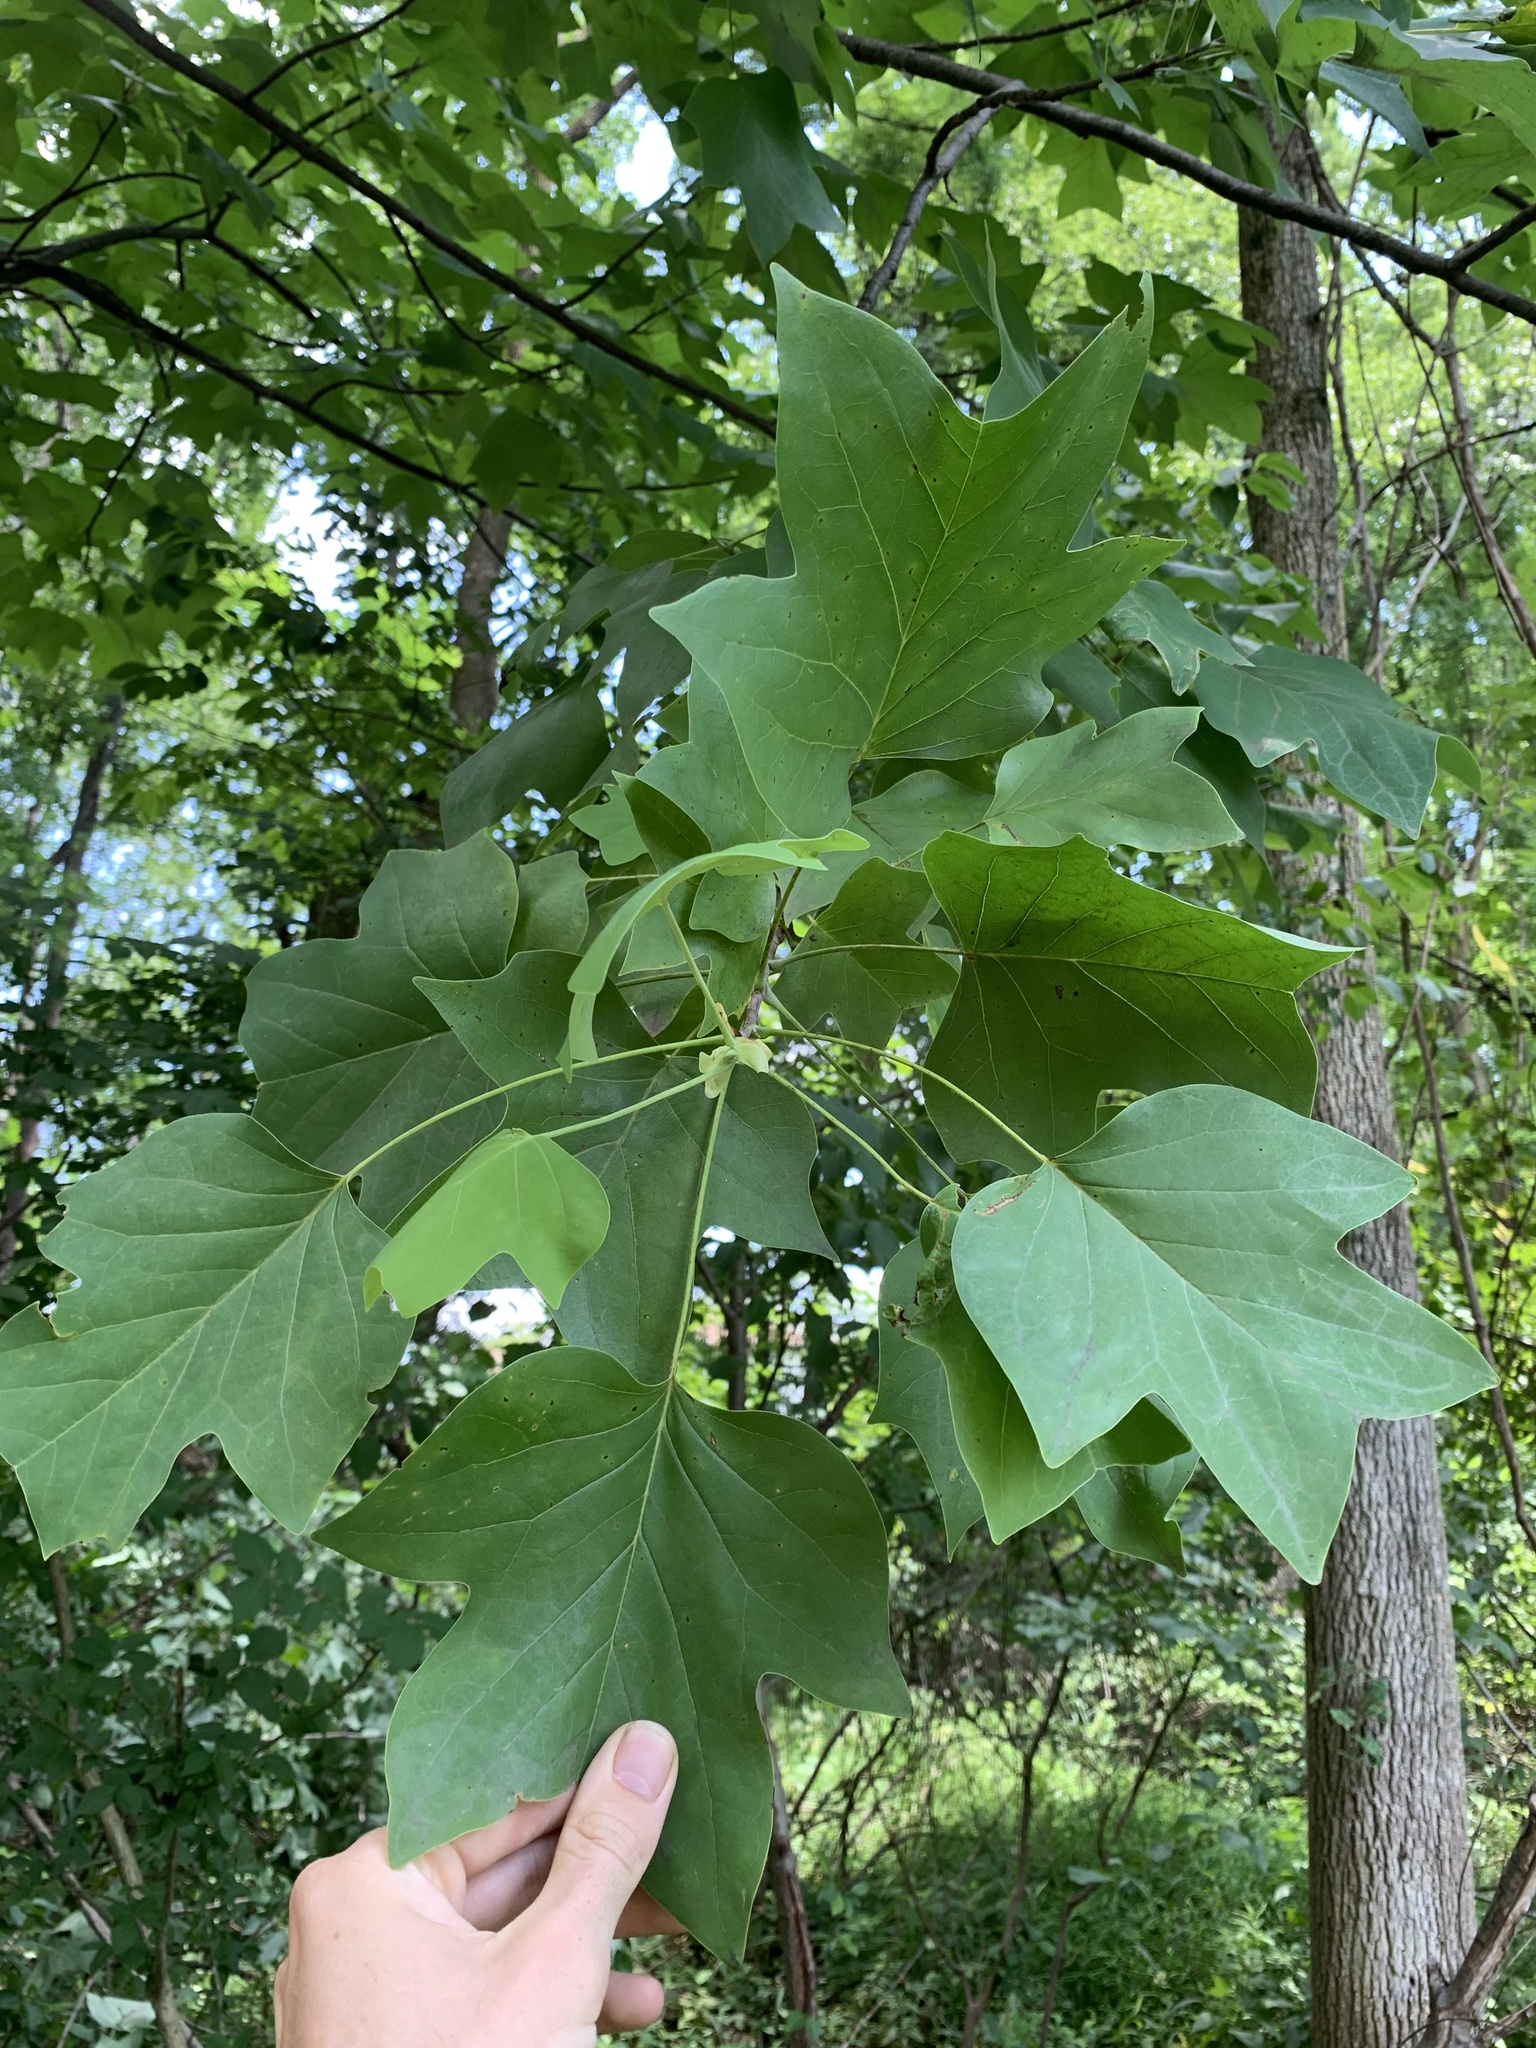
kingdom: Plantae
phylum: Tracheophyta
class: Magnoliopsida
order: Magnoliales
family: Magnoliaceae
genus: Liriodendron
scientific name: Liriodendron tulipifera
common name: Tulip tree
